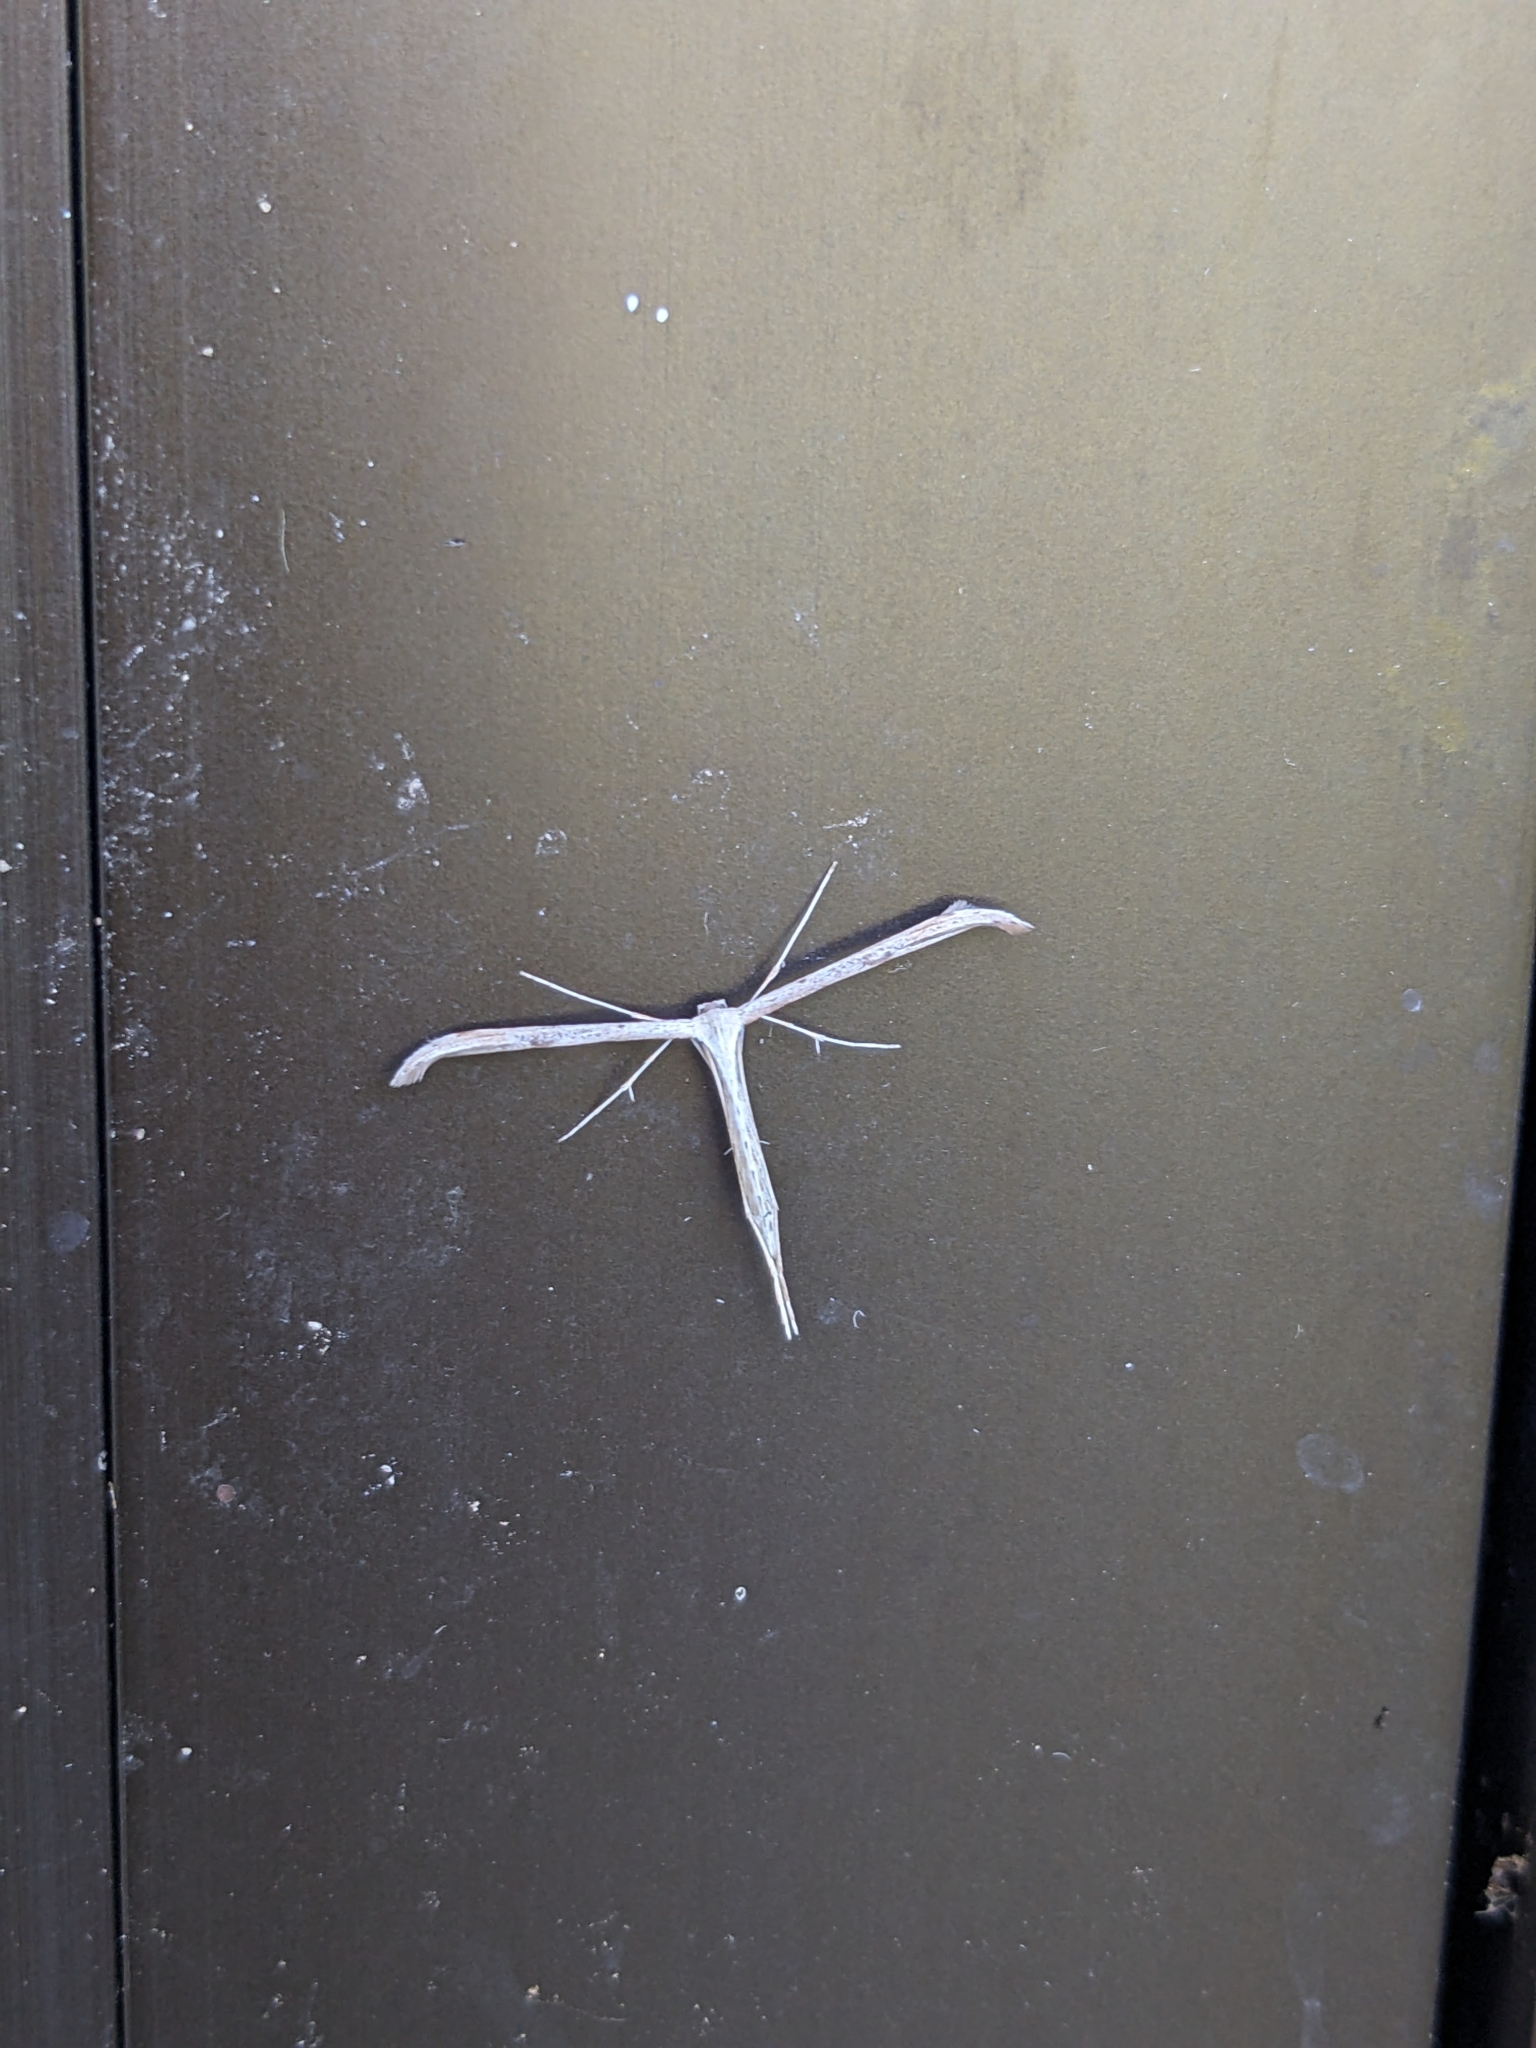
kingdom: Animalia
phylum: Arthropoda
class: Insecta
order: Lepidoptera
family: Pterophoridae
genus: Emmelina
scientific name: Emmelina monodactyla
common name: Common plume
